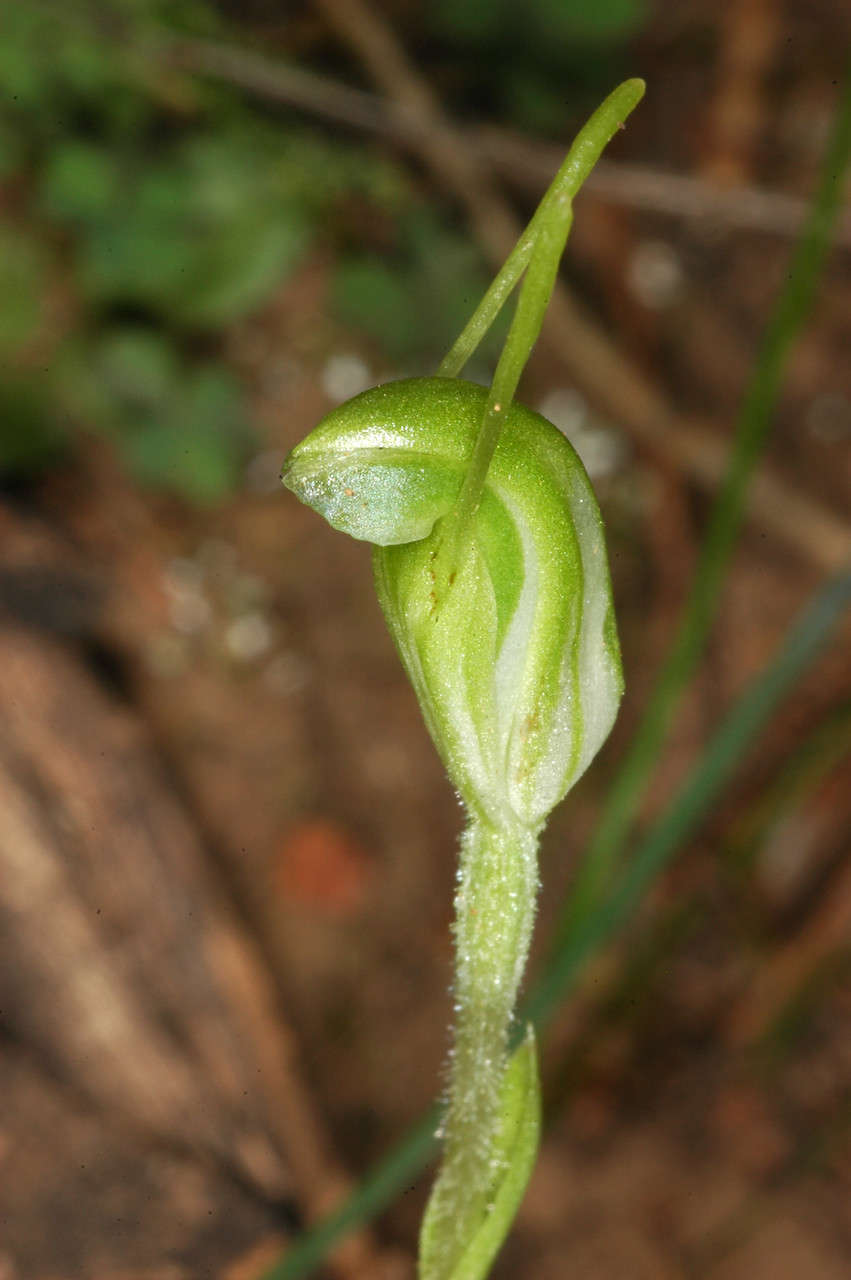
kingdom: Plantae
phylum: Tracheophyta
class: Liliopsida
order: Asparagales
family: Orchidaceae
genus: Pterostylis
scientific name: Pterostylis nana
